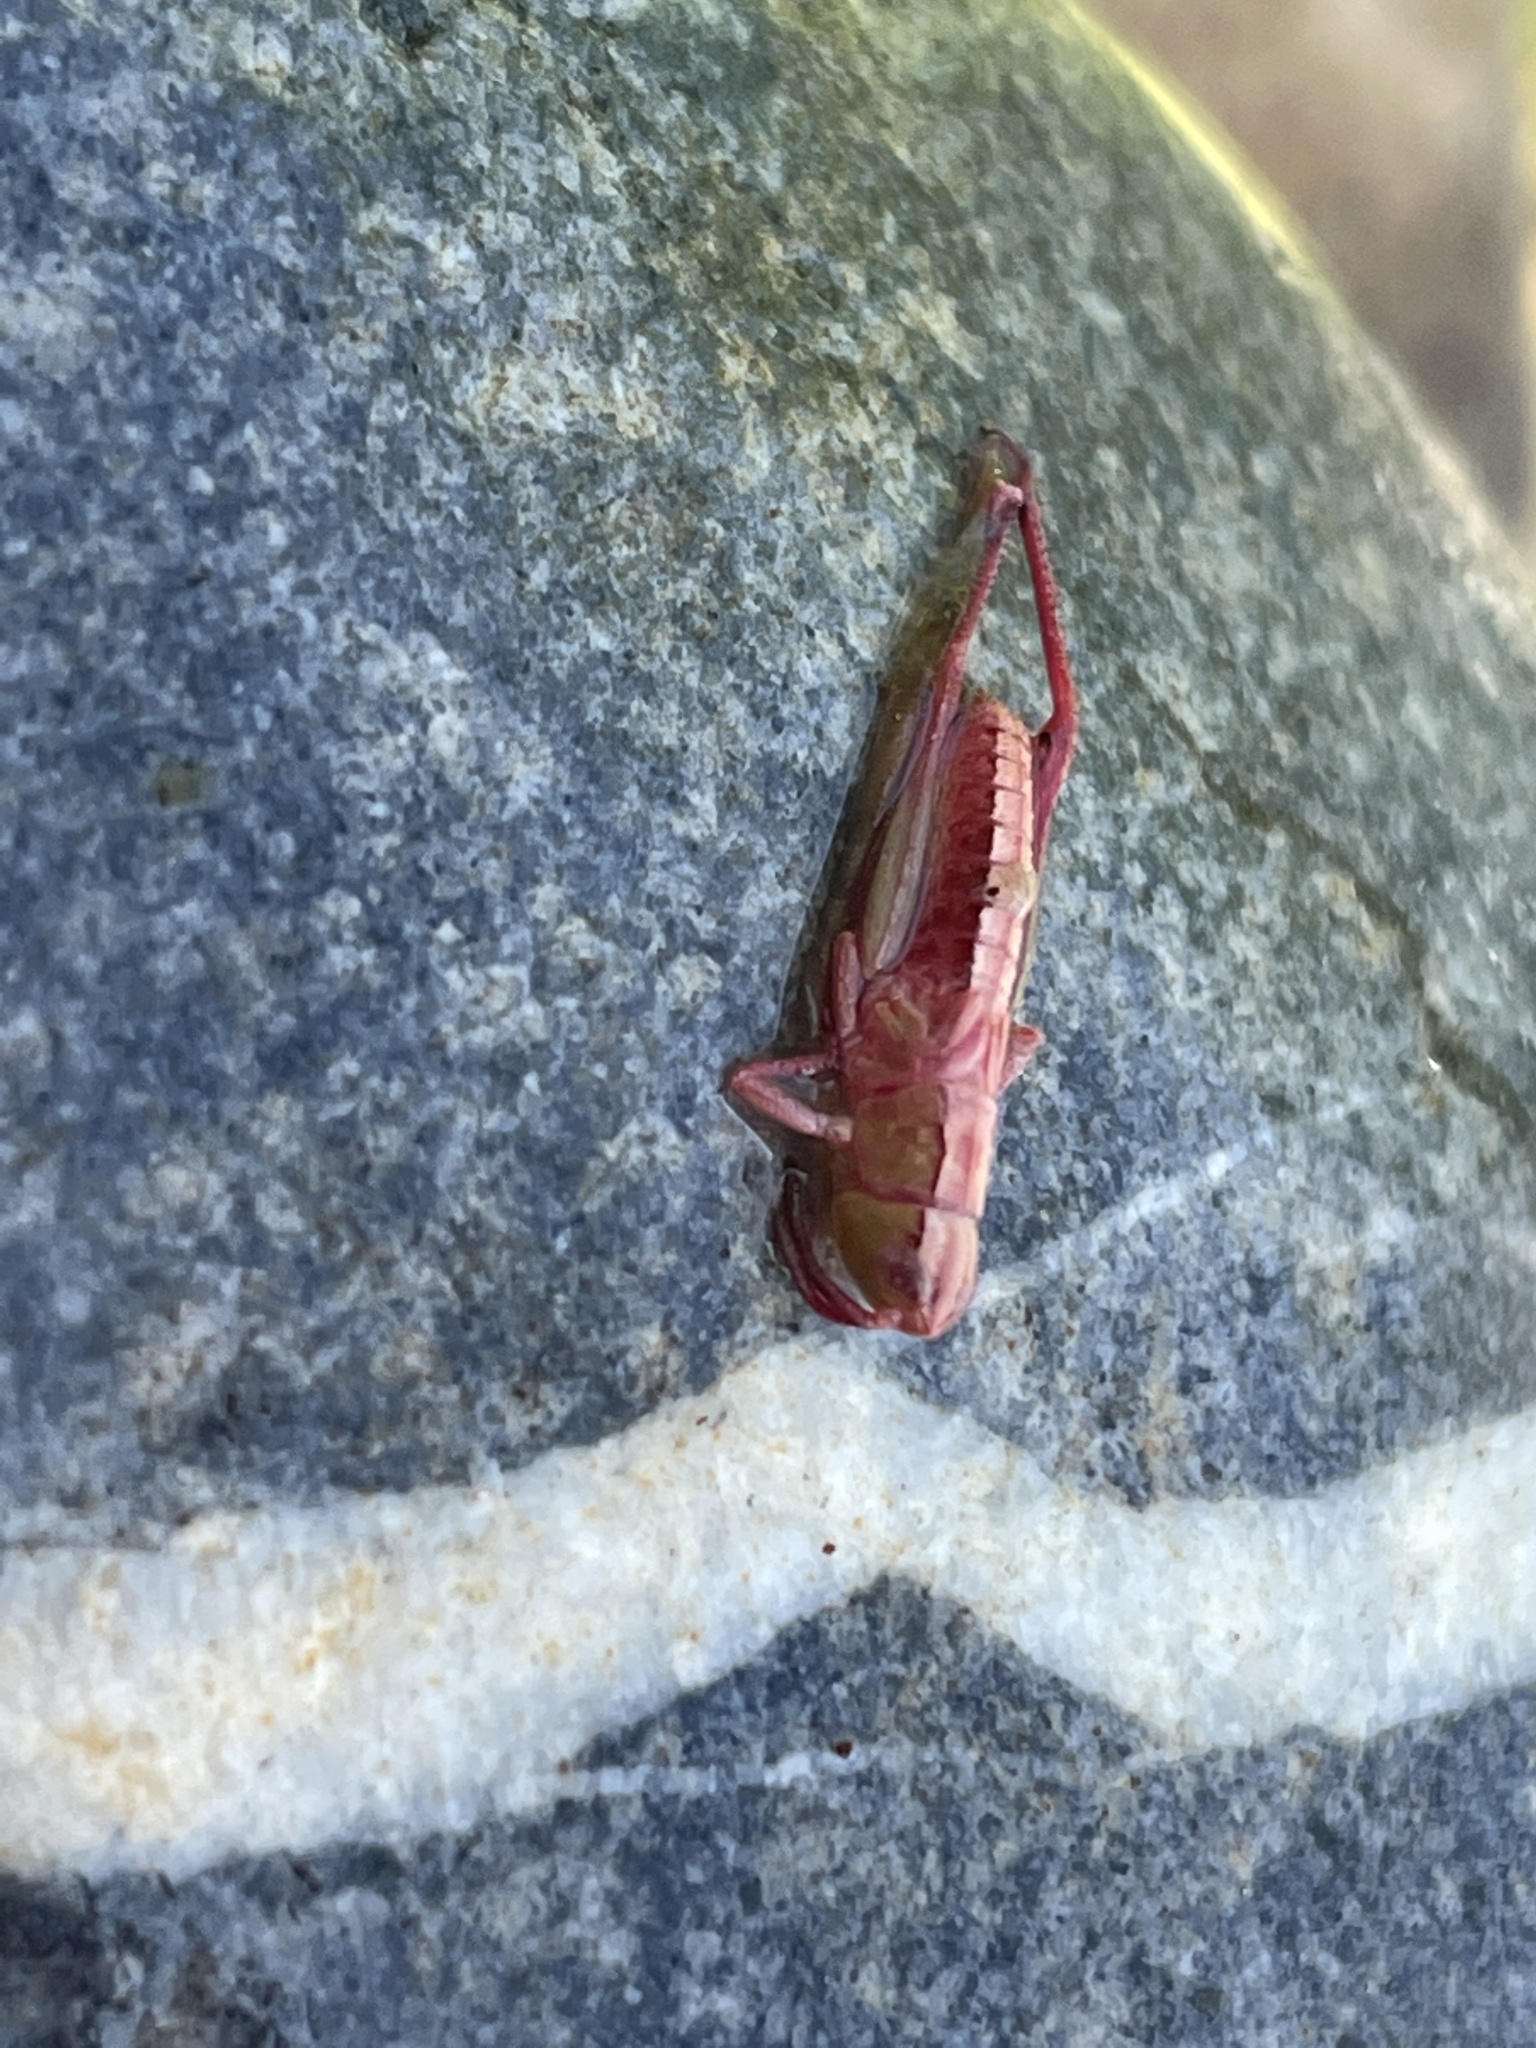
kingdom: Animalia
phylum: Arthropoda
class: Insecta
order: Orthoptera
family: Acrididae
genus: Pseudochorthippus
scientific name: Pseudochorthippus parallelus
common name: Meadow grasshopper
